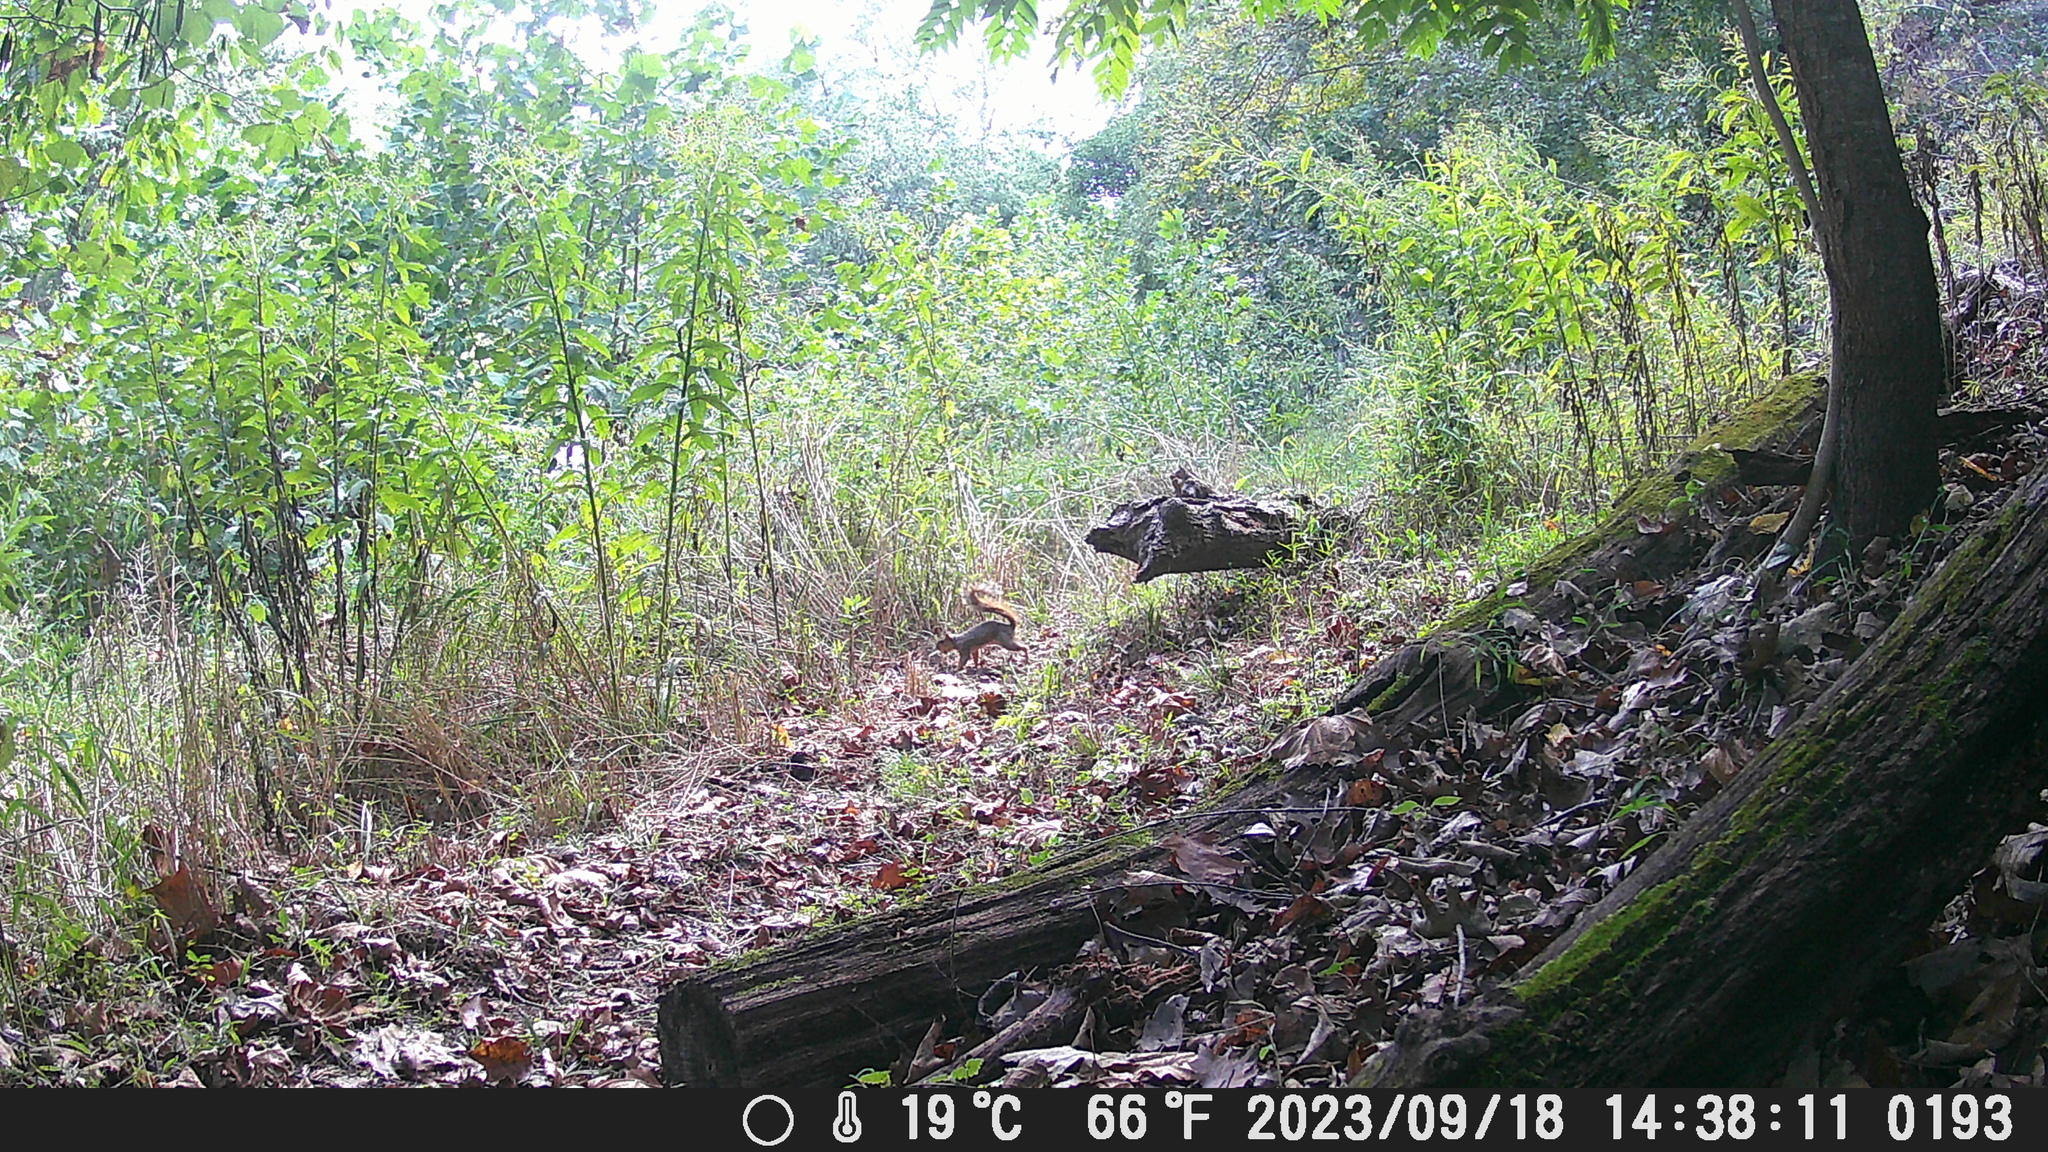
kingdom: Animalia
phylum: Chordata
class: Mammalia
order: Rodentia
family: Sciuridae
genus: Sciurus
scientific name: Sciurus niger
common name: Fox squirrel
